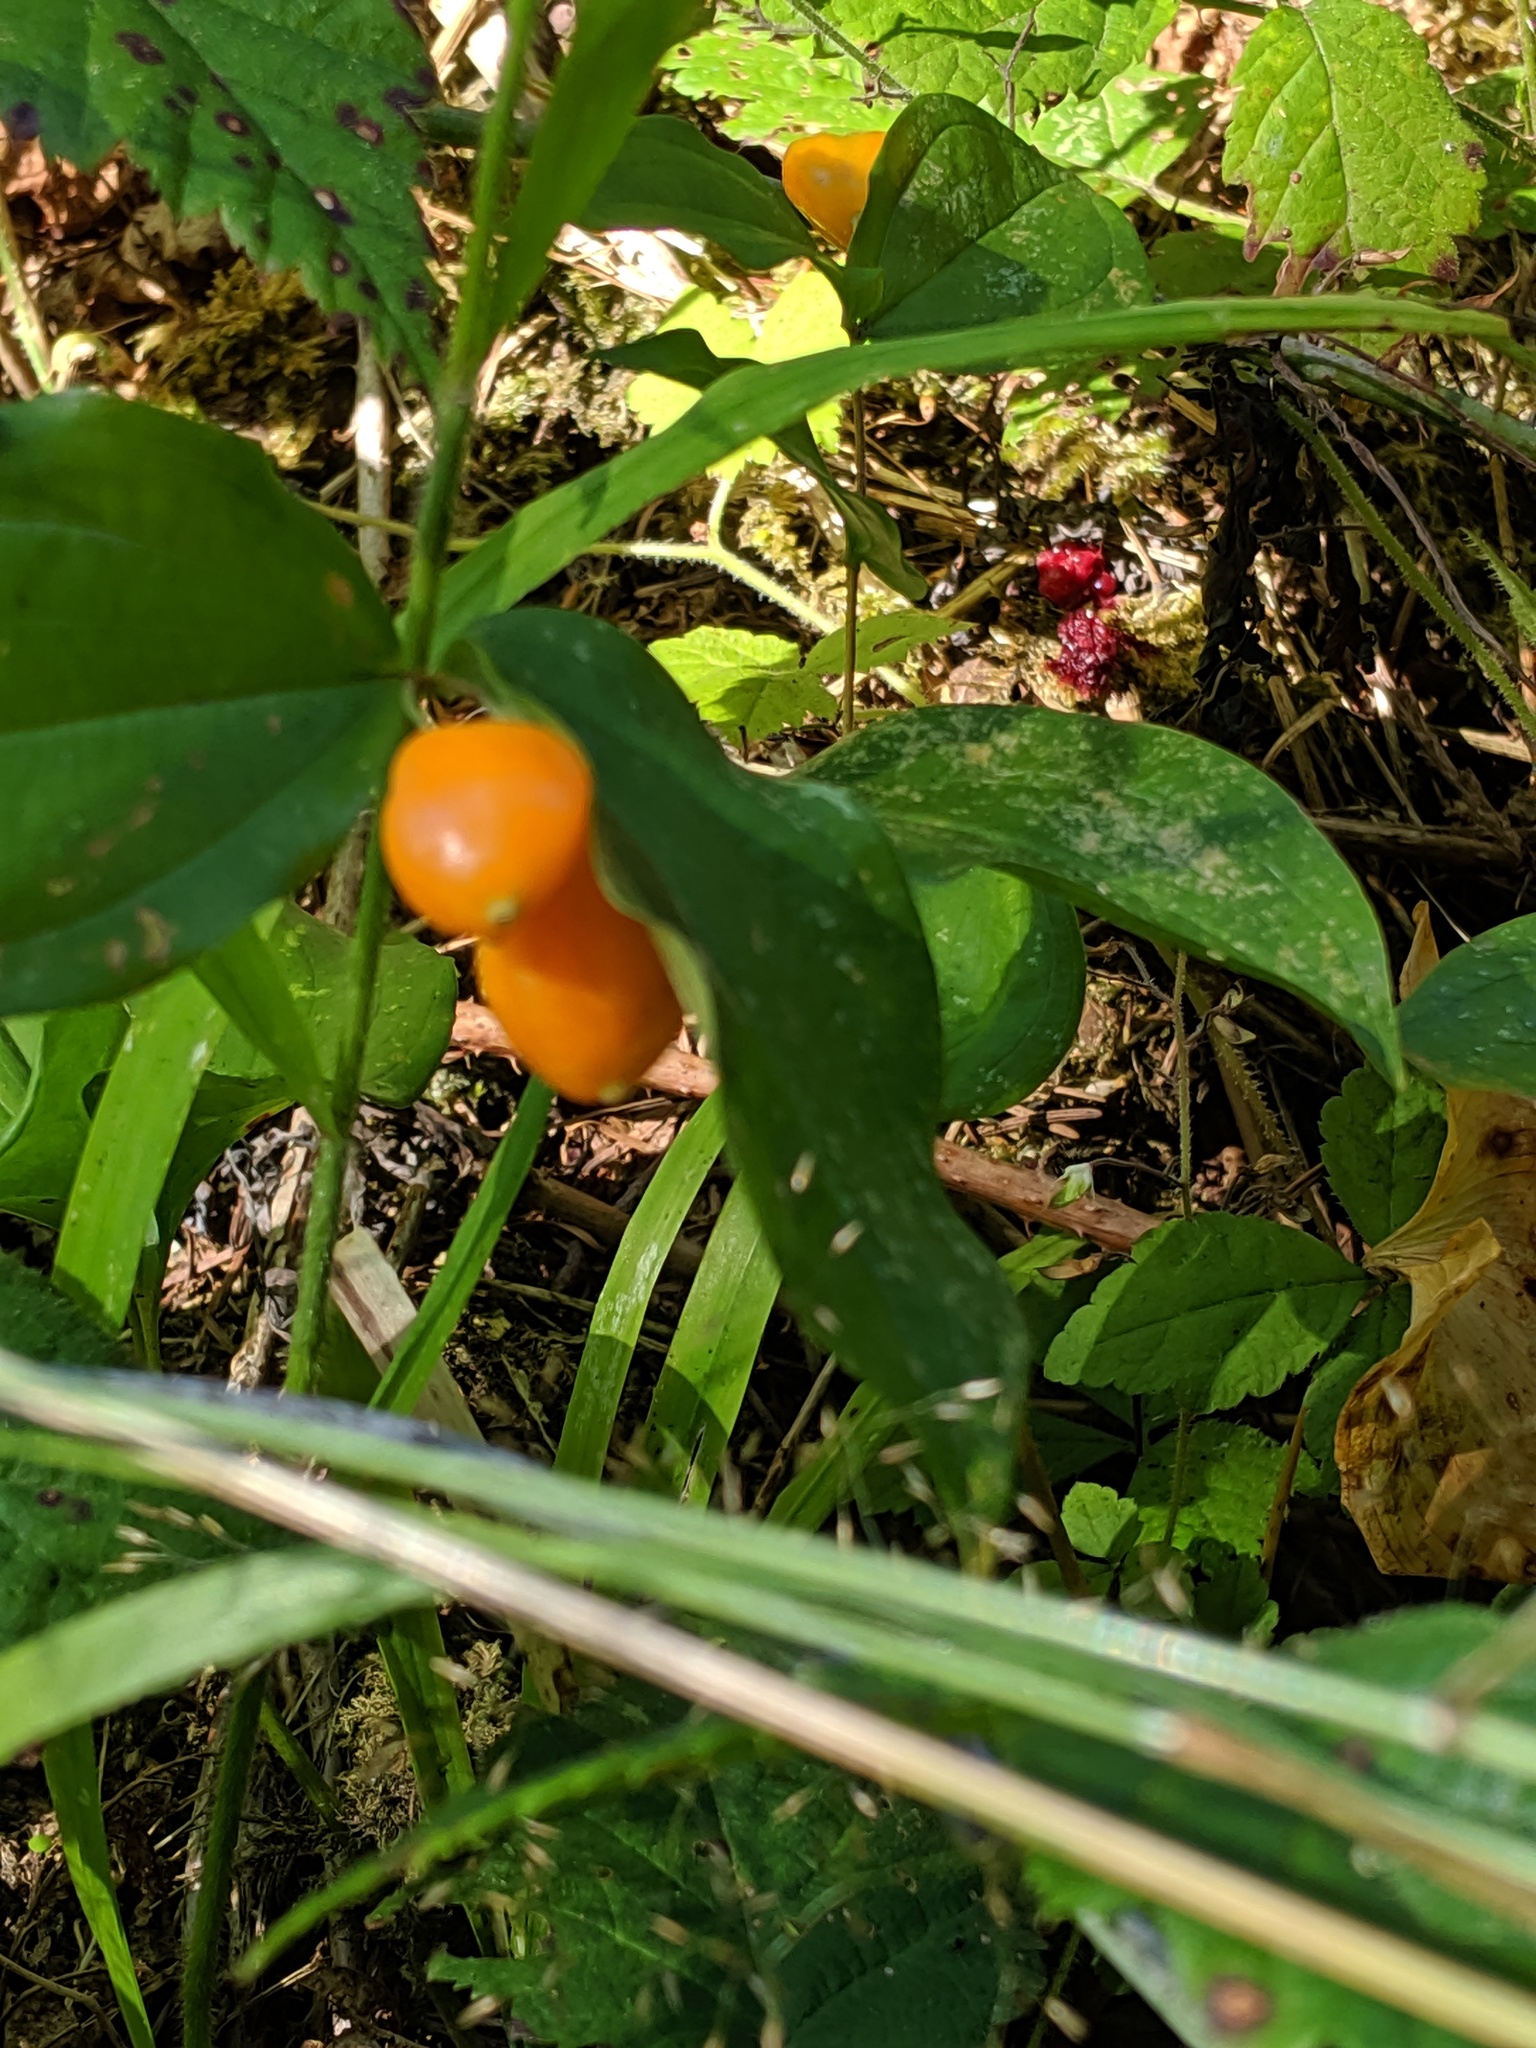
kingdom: Plantae
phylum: Tracheophyta
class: Liliopsida
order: Liliales
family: Liliaceae
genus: Prosartes
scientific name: Prosartes smithii
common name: Fairy-lantern
